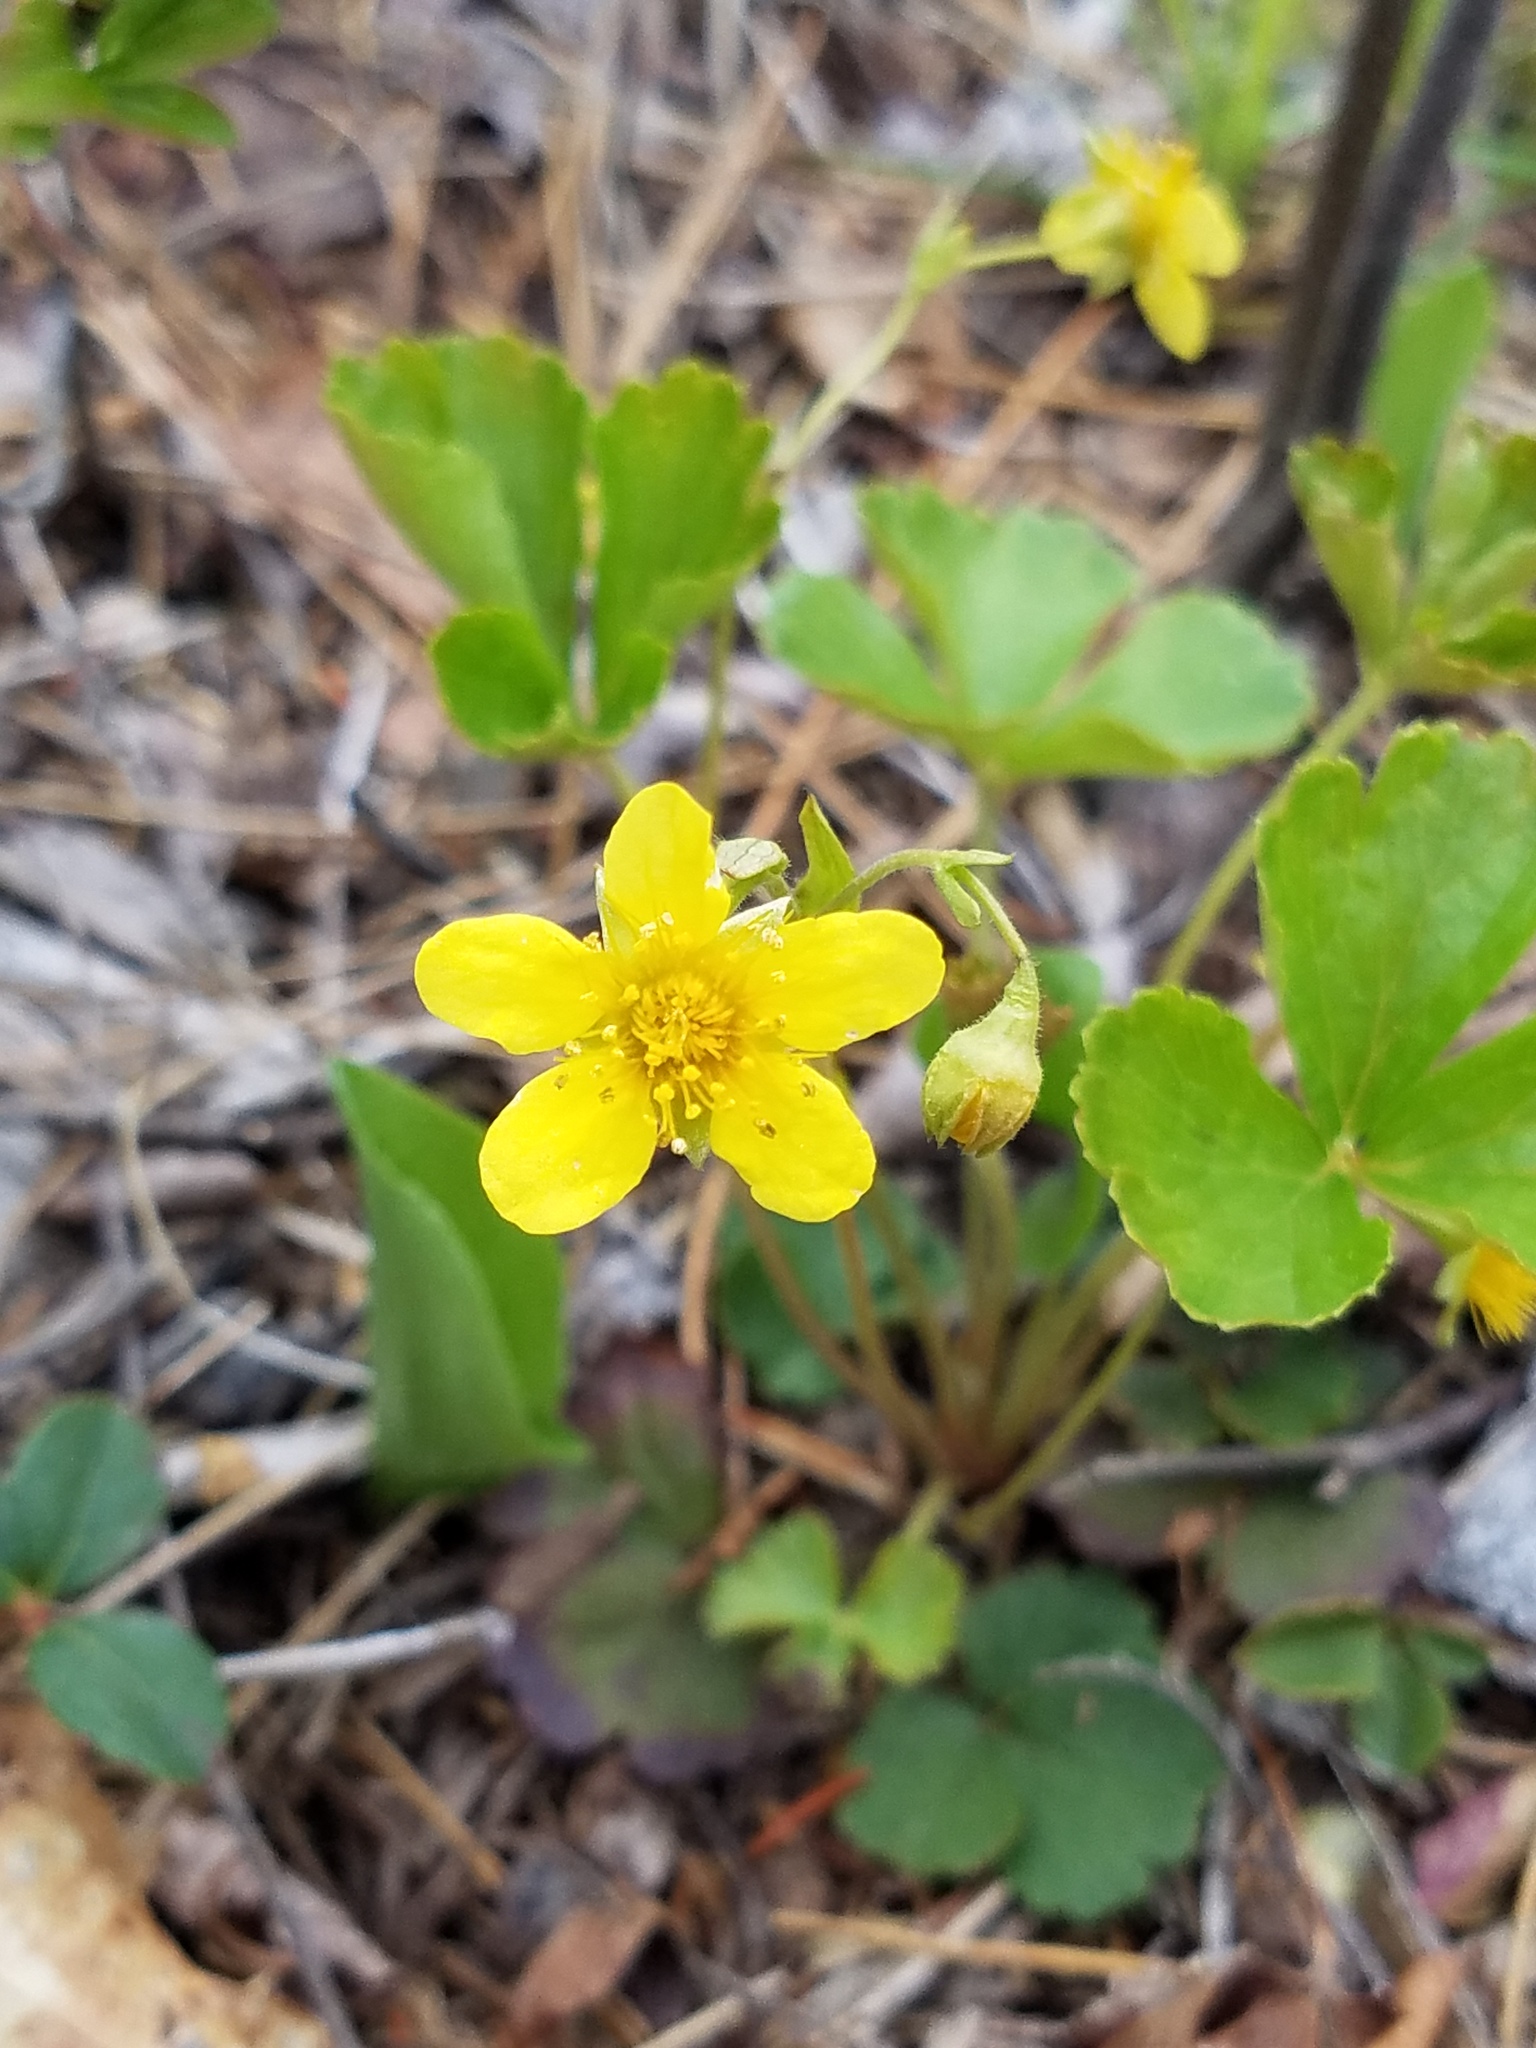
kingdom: Plantae
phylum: Tracheophyta
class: Magnoliopsida
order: Rosales
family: Rosaceae
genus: Geum
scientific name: Geum fragarioides
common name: Appalachian barren strawberry
